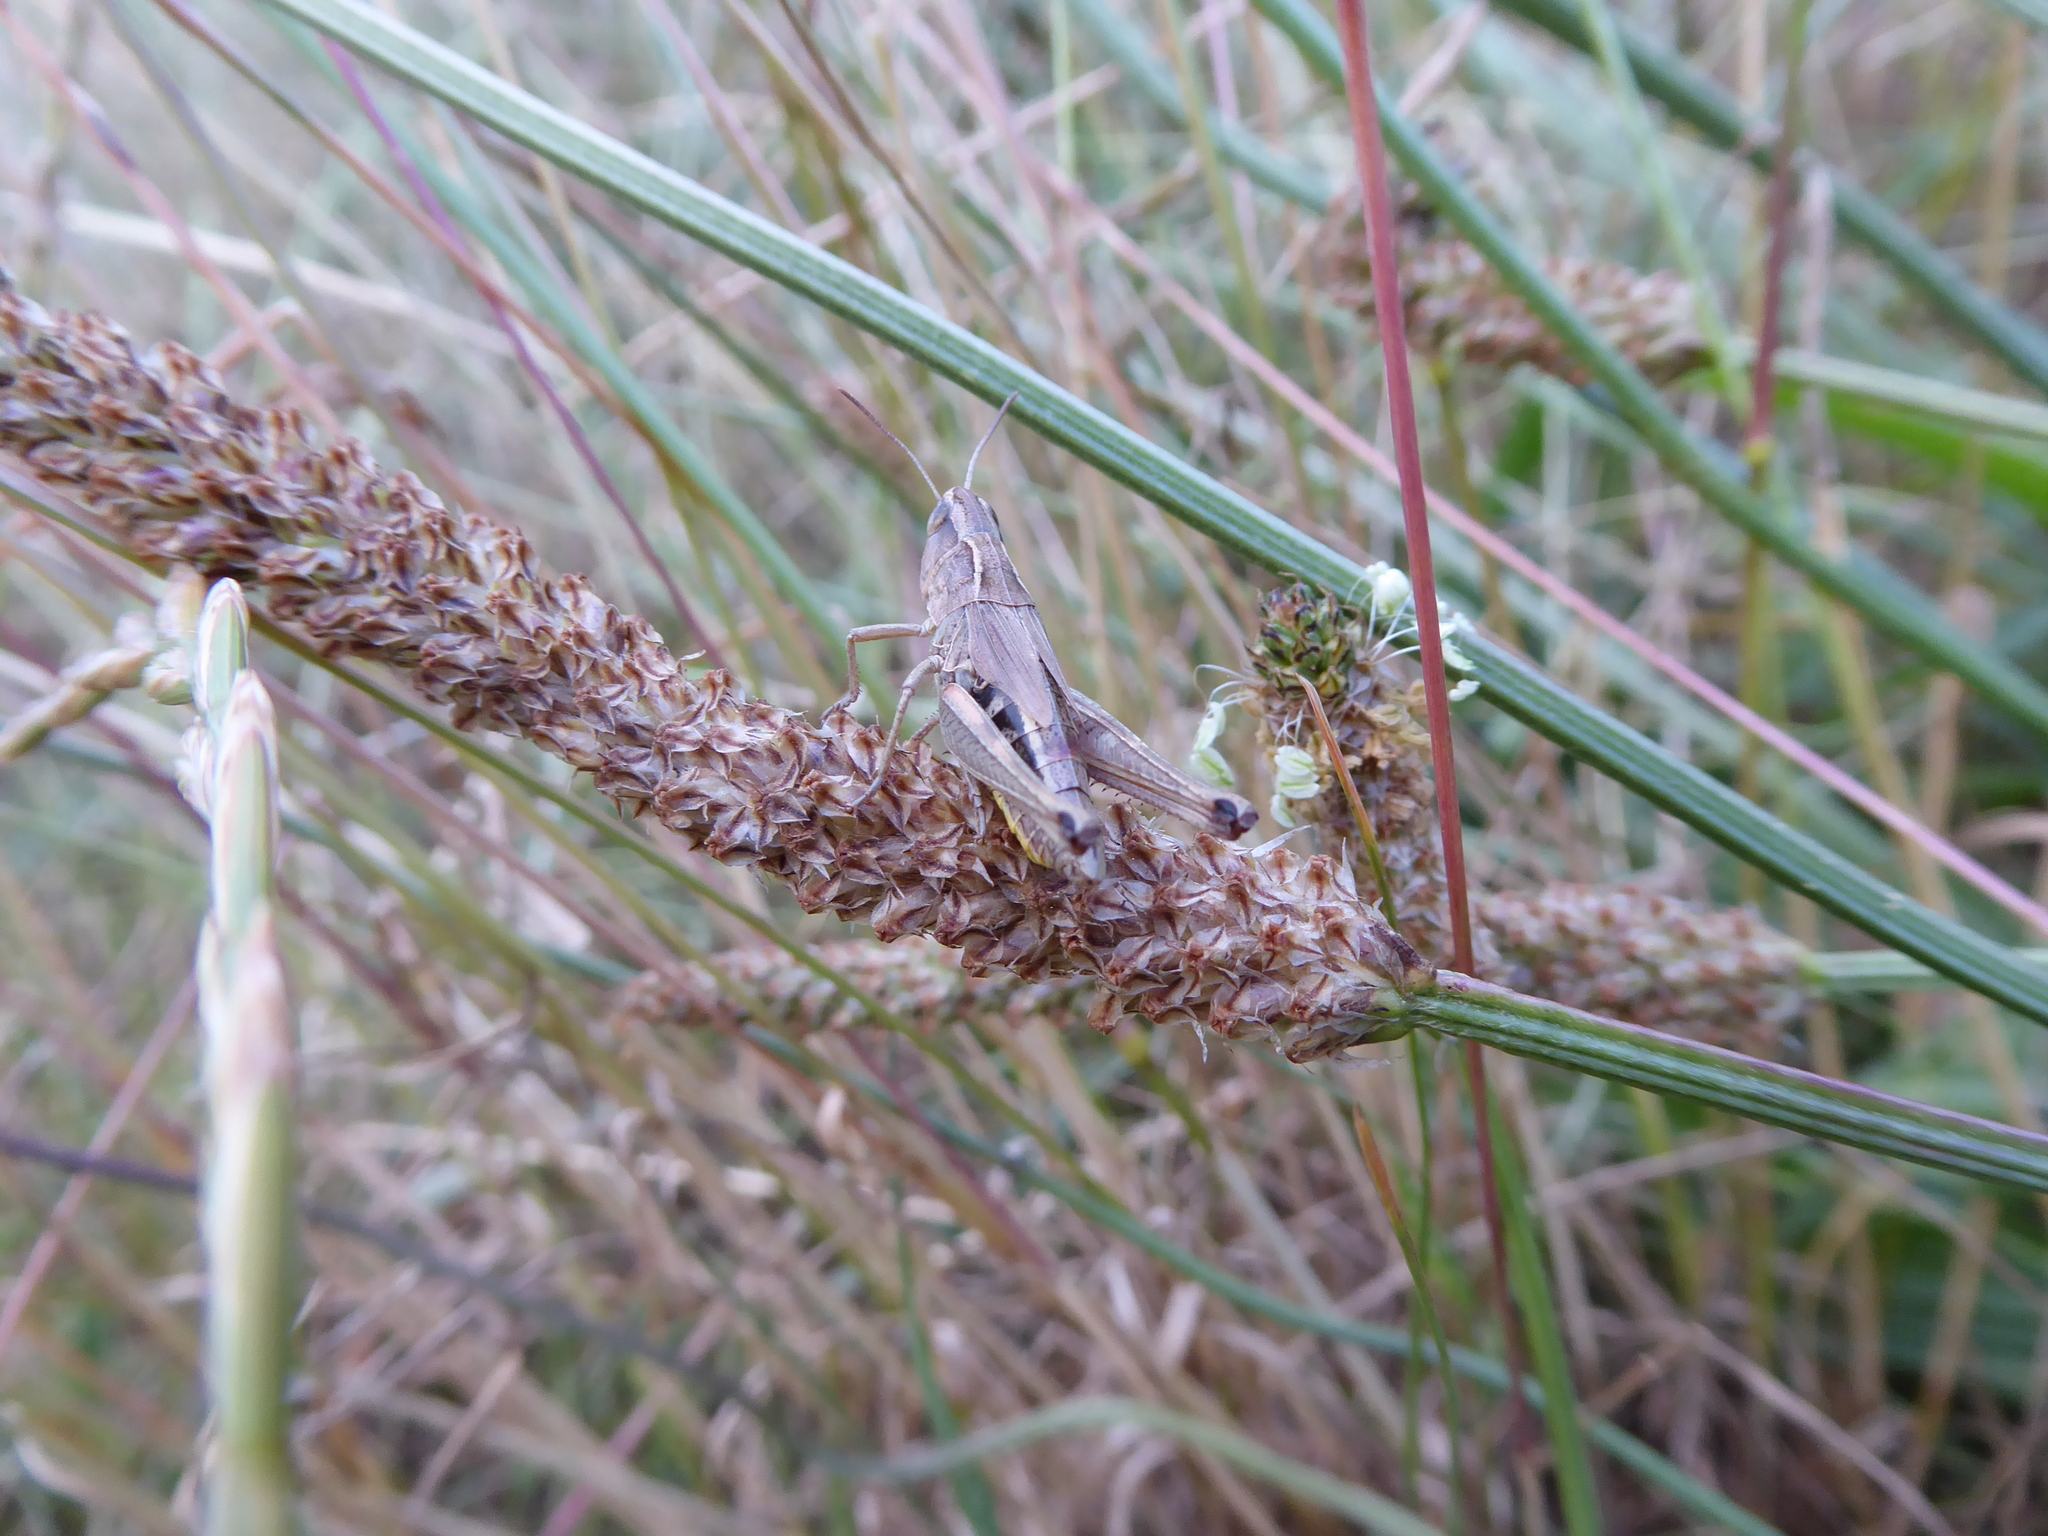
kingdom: Animalia
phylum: Arthropoda
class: Insecta
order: Orthoptera
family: Acrididae
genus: Pseudochorthippus
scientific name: Pseudochorthippus parallelus
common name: Meadow grasshopper
